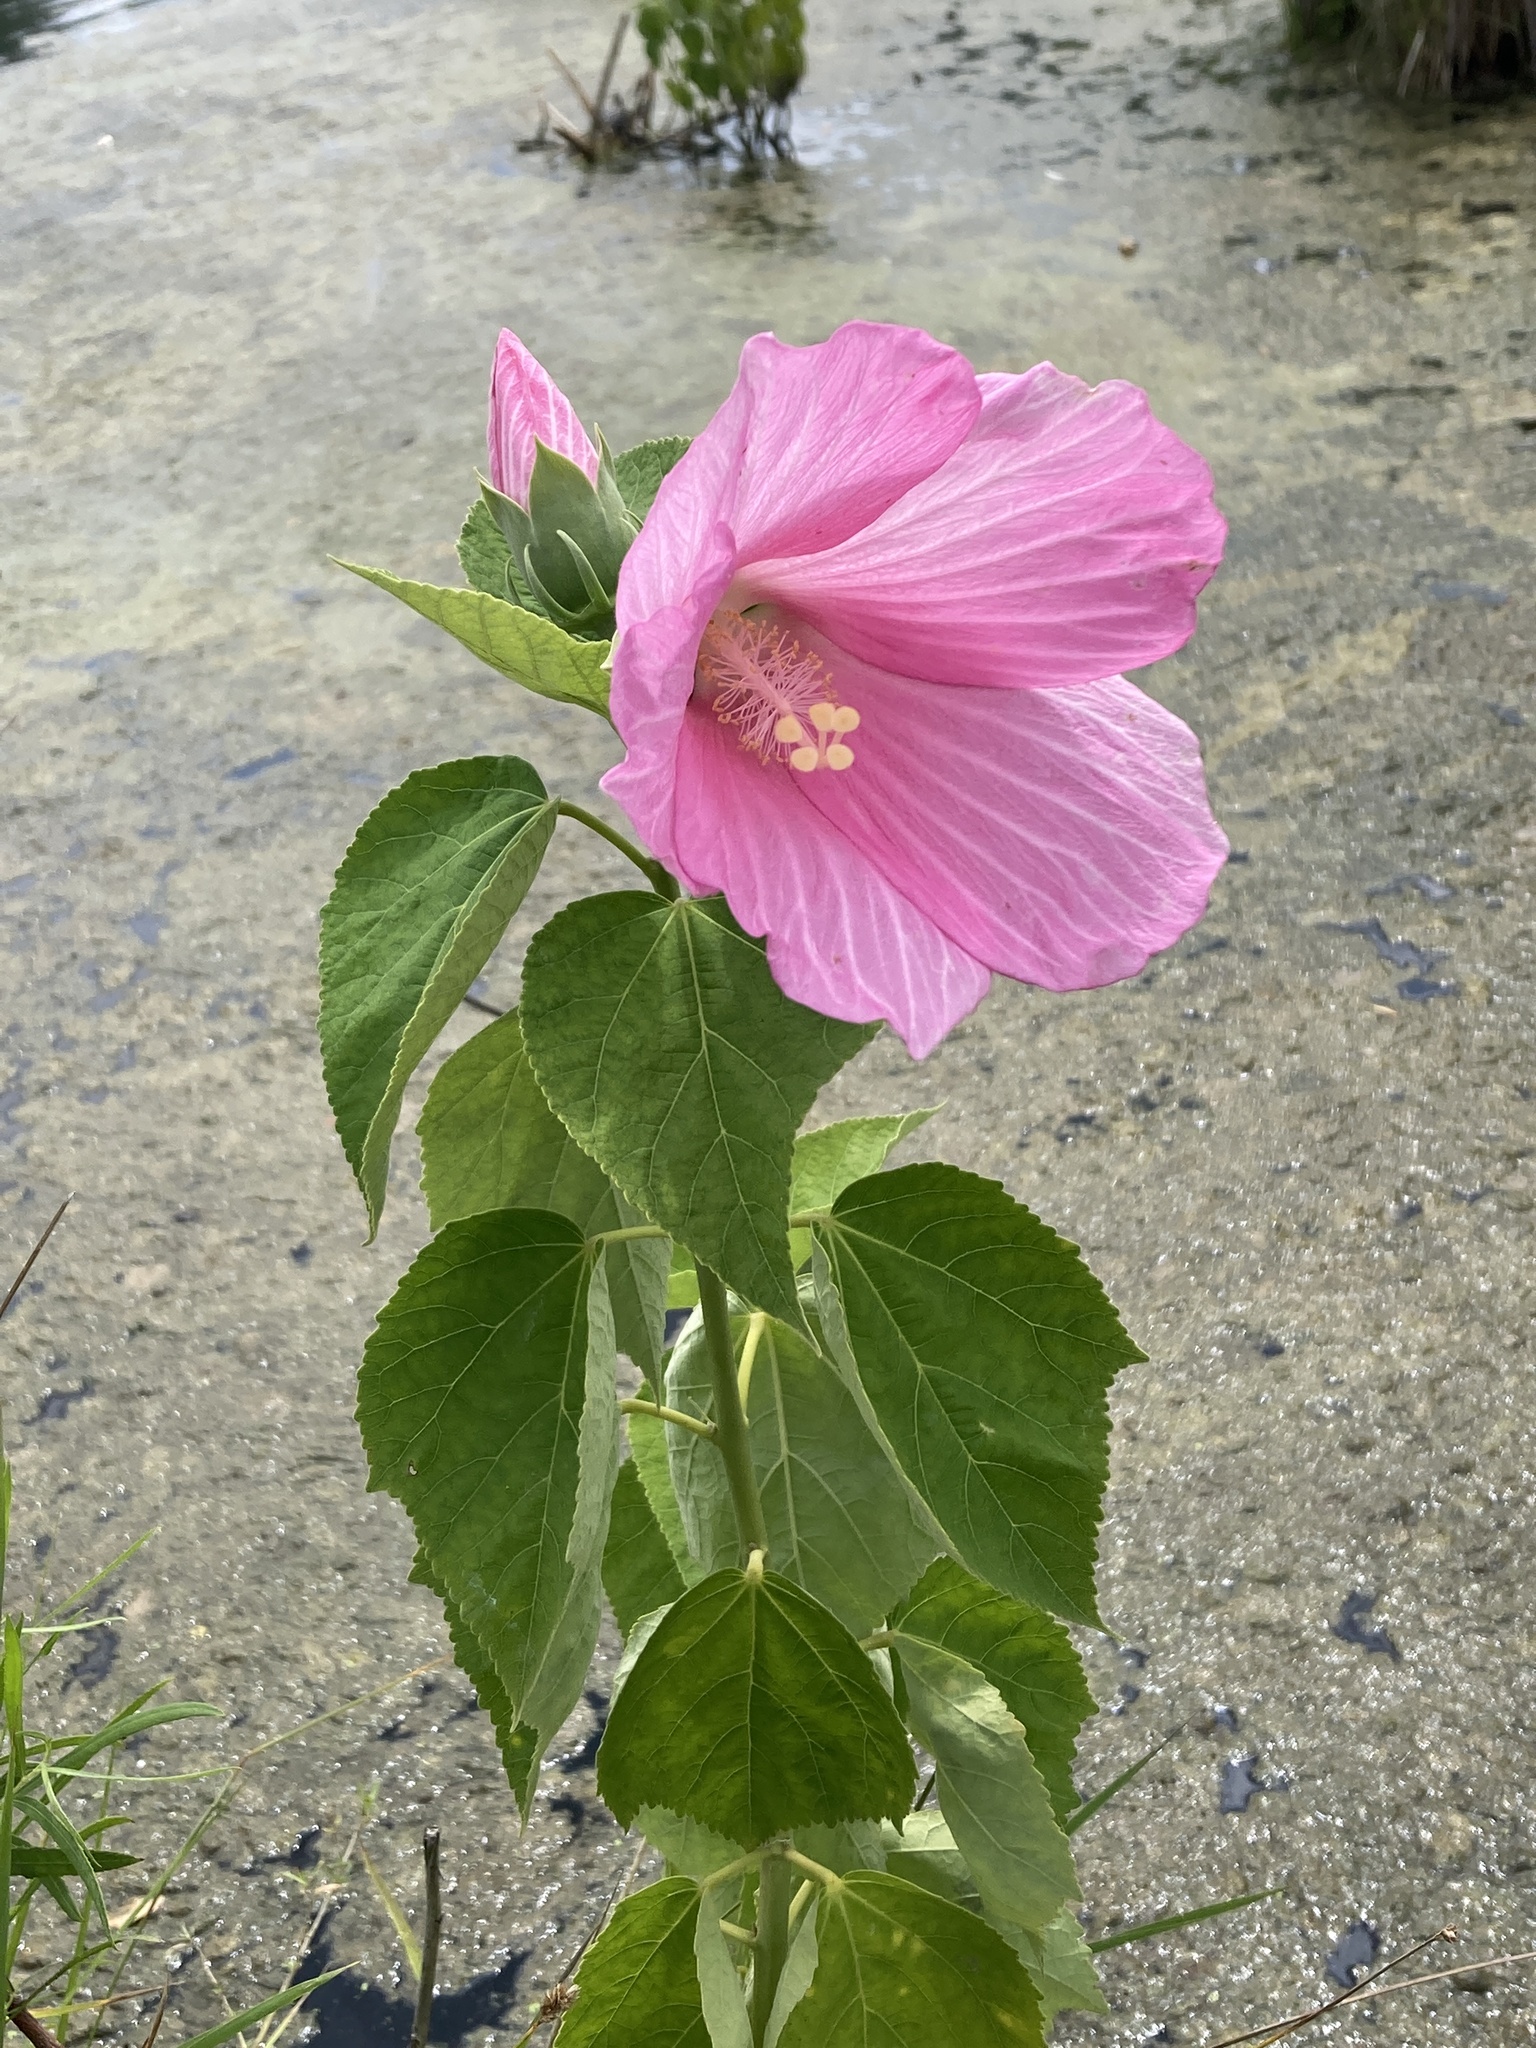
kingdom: Plantae
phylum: Tracheophyta
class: Magnoliopsida
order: Malvales
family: Malvaceae
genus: Hibiscus
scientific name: Hibiscus moscheutos
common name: Common rose-mallow
